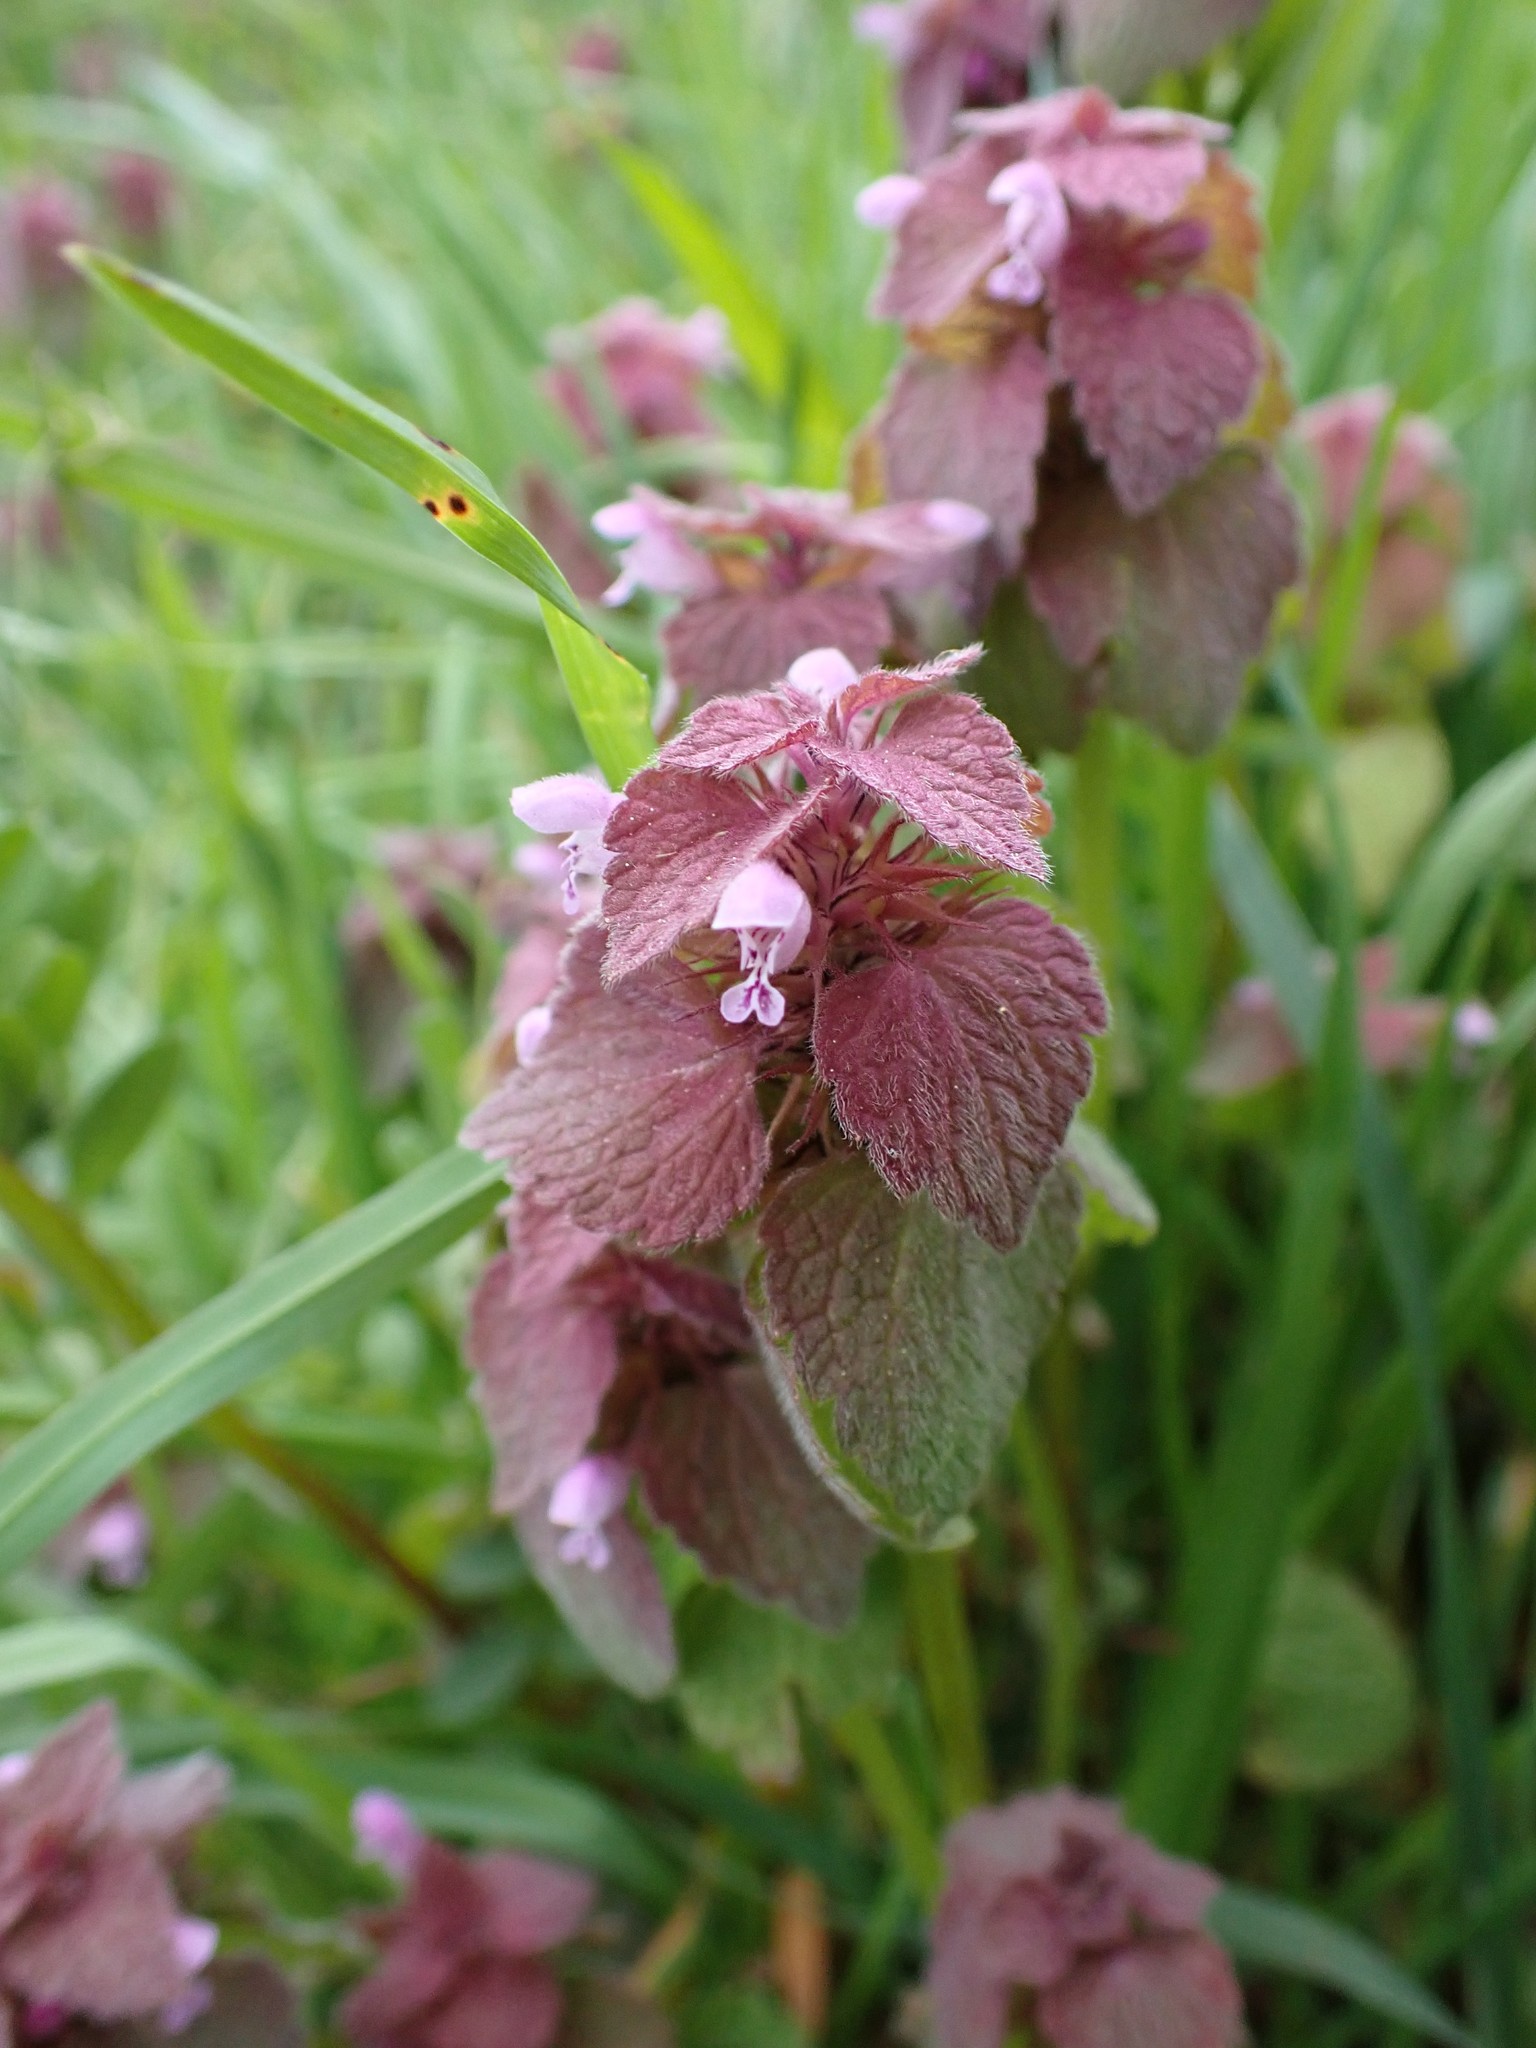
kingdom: Plantae
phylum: Tracheophyta
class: Magnoliopsida
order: Lamiales
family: Lamiaceae
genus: Lamium
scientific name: Lamium purpureum
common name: Red dead-nettle
